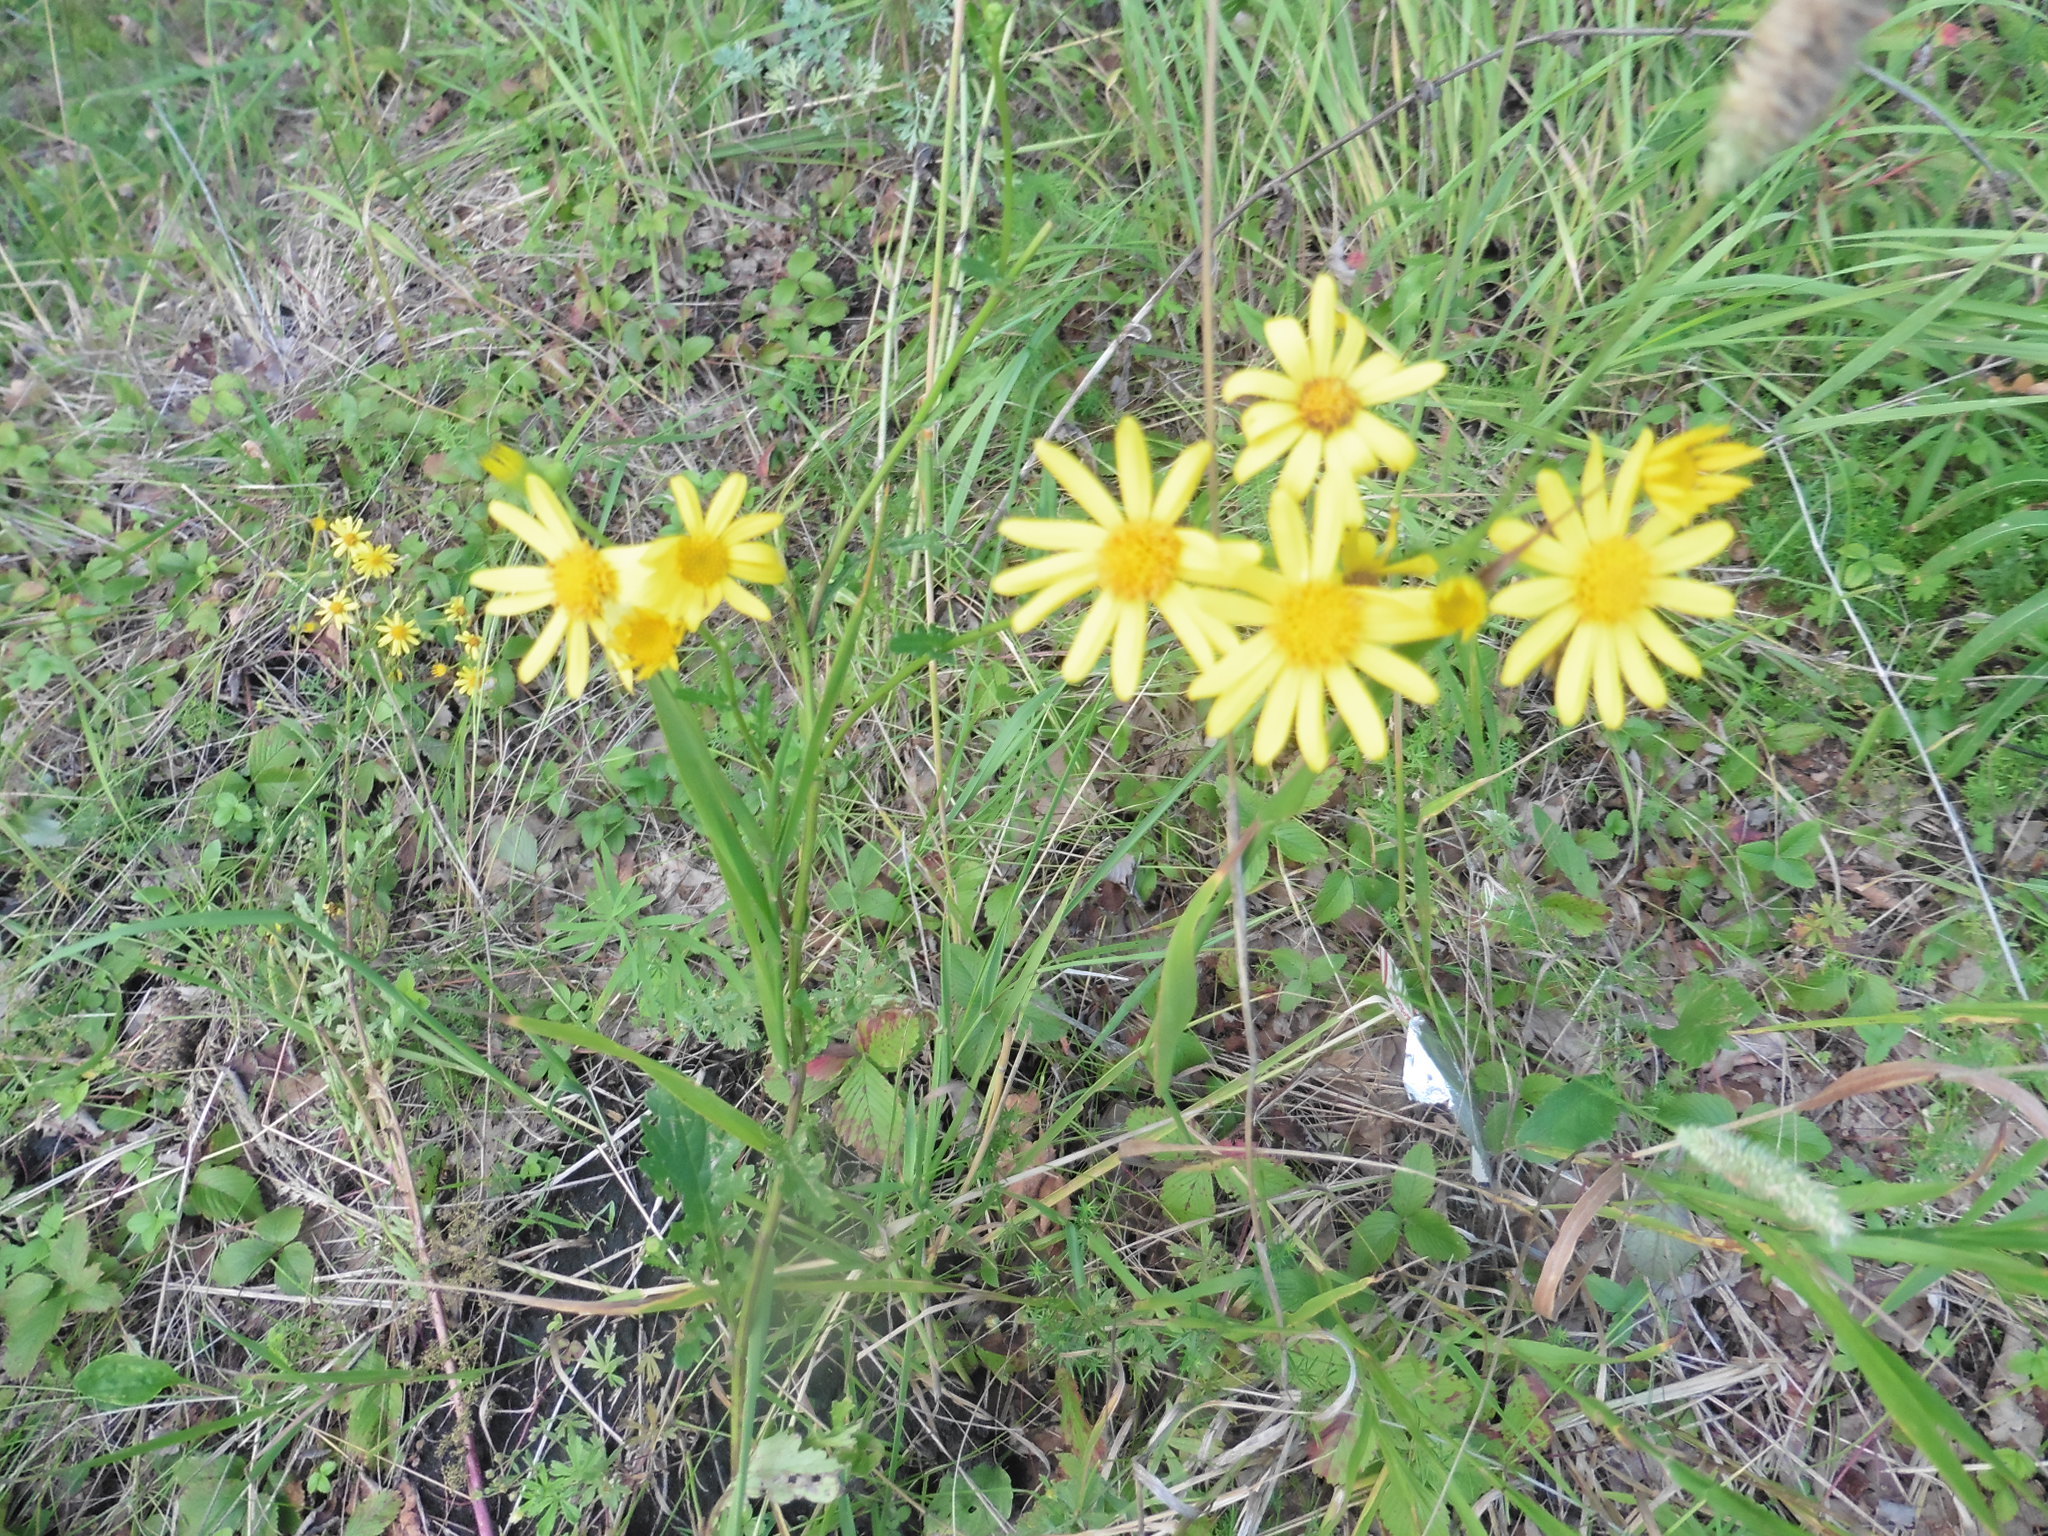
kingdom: Plantae
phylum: Tracheophyta
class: Magnoliopsida
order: Asterales
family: Asteraceae
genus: Jacobaea
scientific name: Jacobaea vulgaris
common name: Stinking willie
